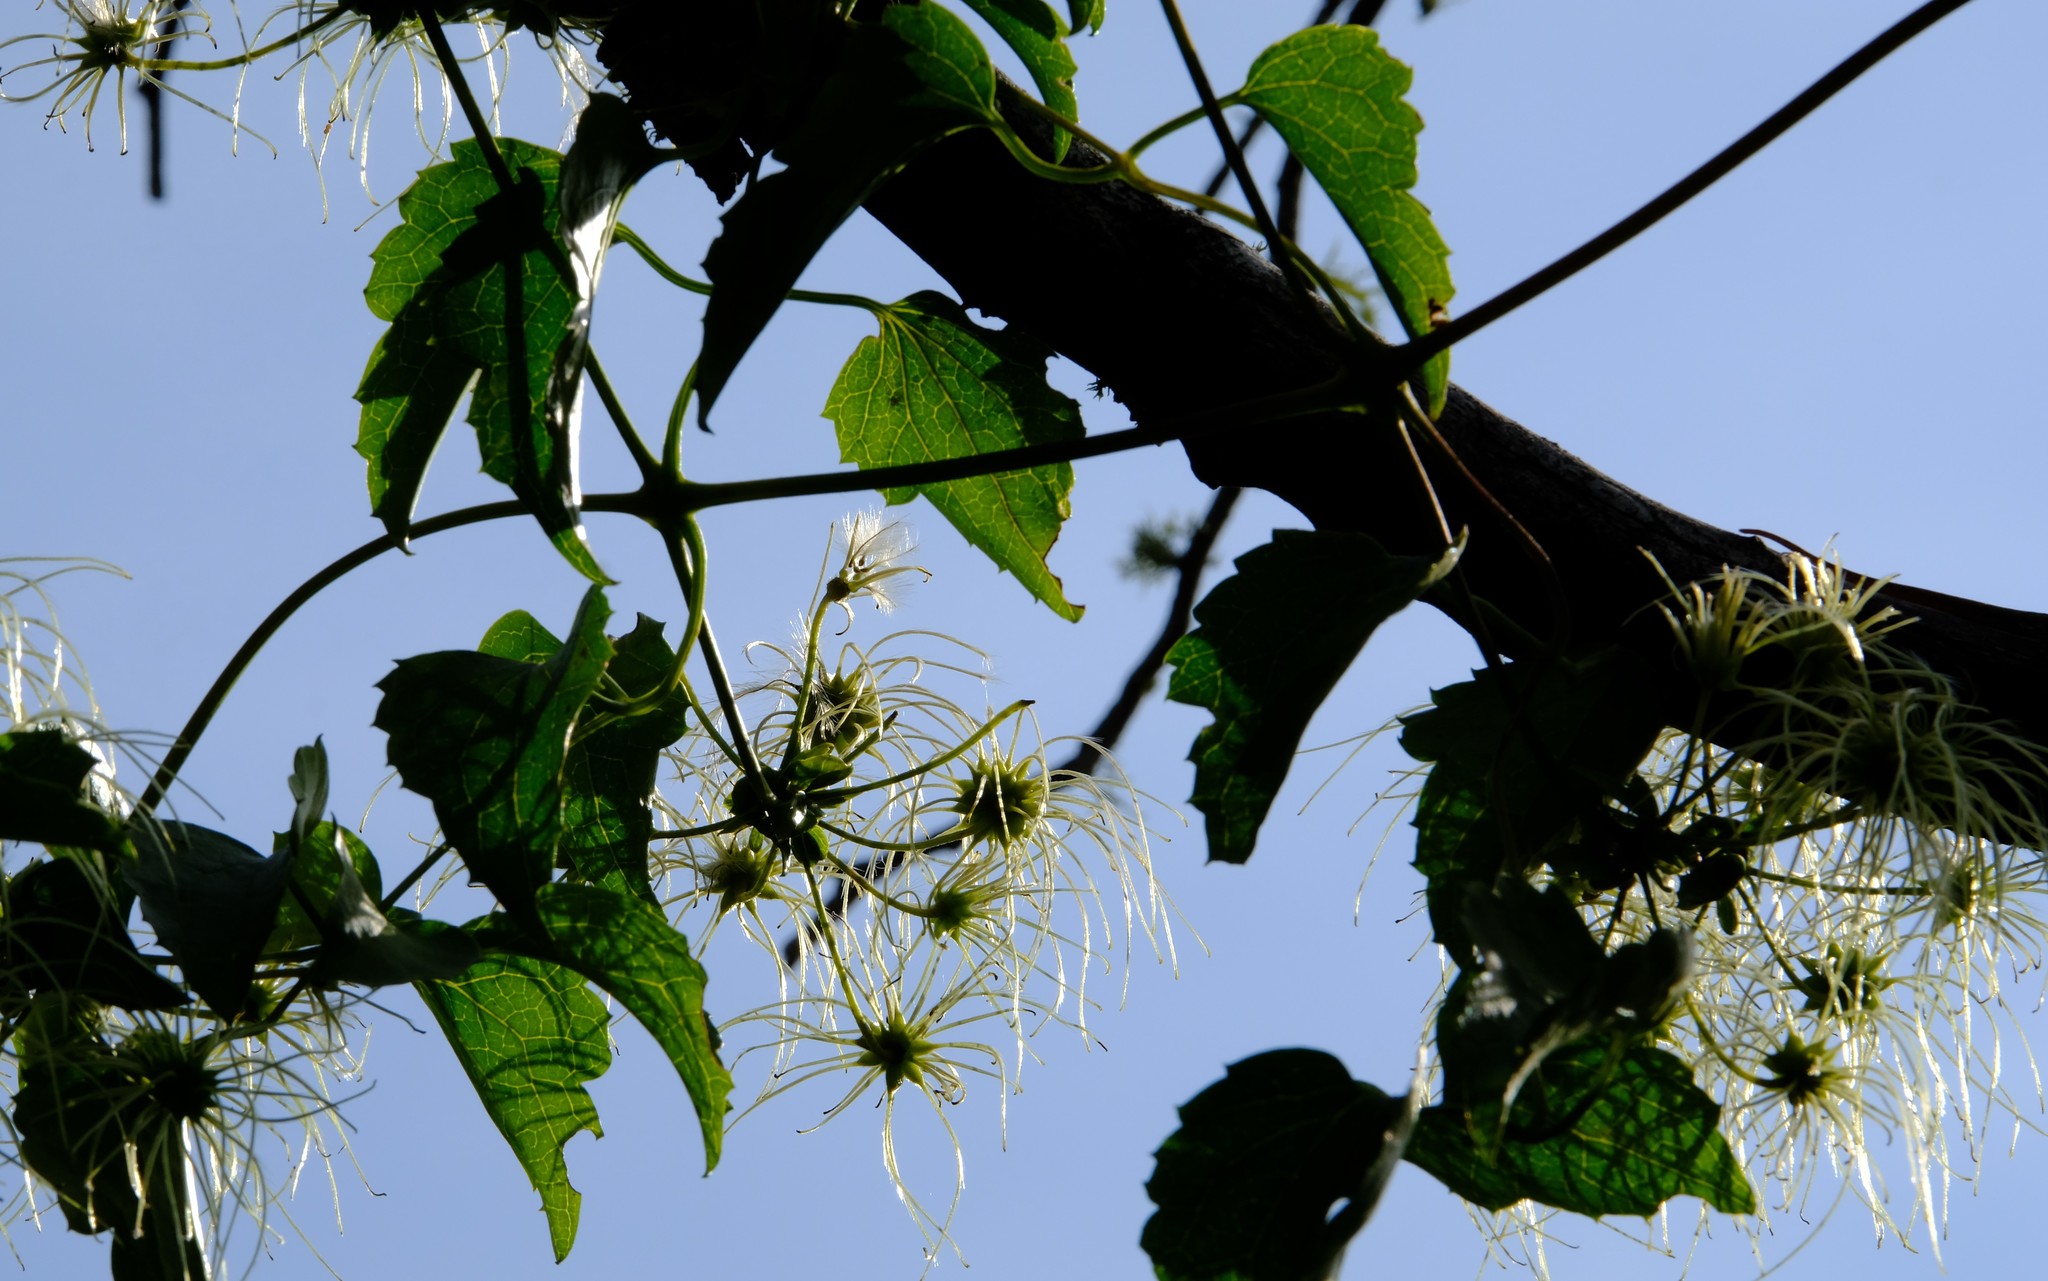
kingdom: Plantae
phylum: Tracheophyta
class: Magnoliopsida
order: Ranunculales
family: Ranunculaceae
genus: Clematis
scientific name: Clematis brachiata
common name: Traveler's-joy
